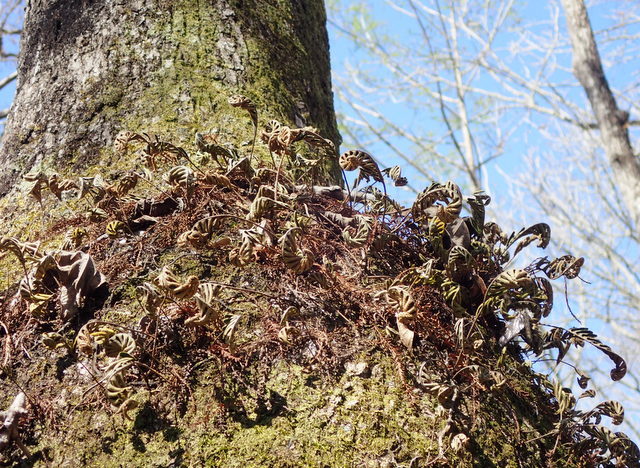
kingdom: Plantae
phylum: Tracheophyta
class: Polypodiopsida
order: Polypodiales
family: Polypodiaceae
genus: Pleopeltis
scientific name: Pleopeltis michauxiana
